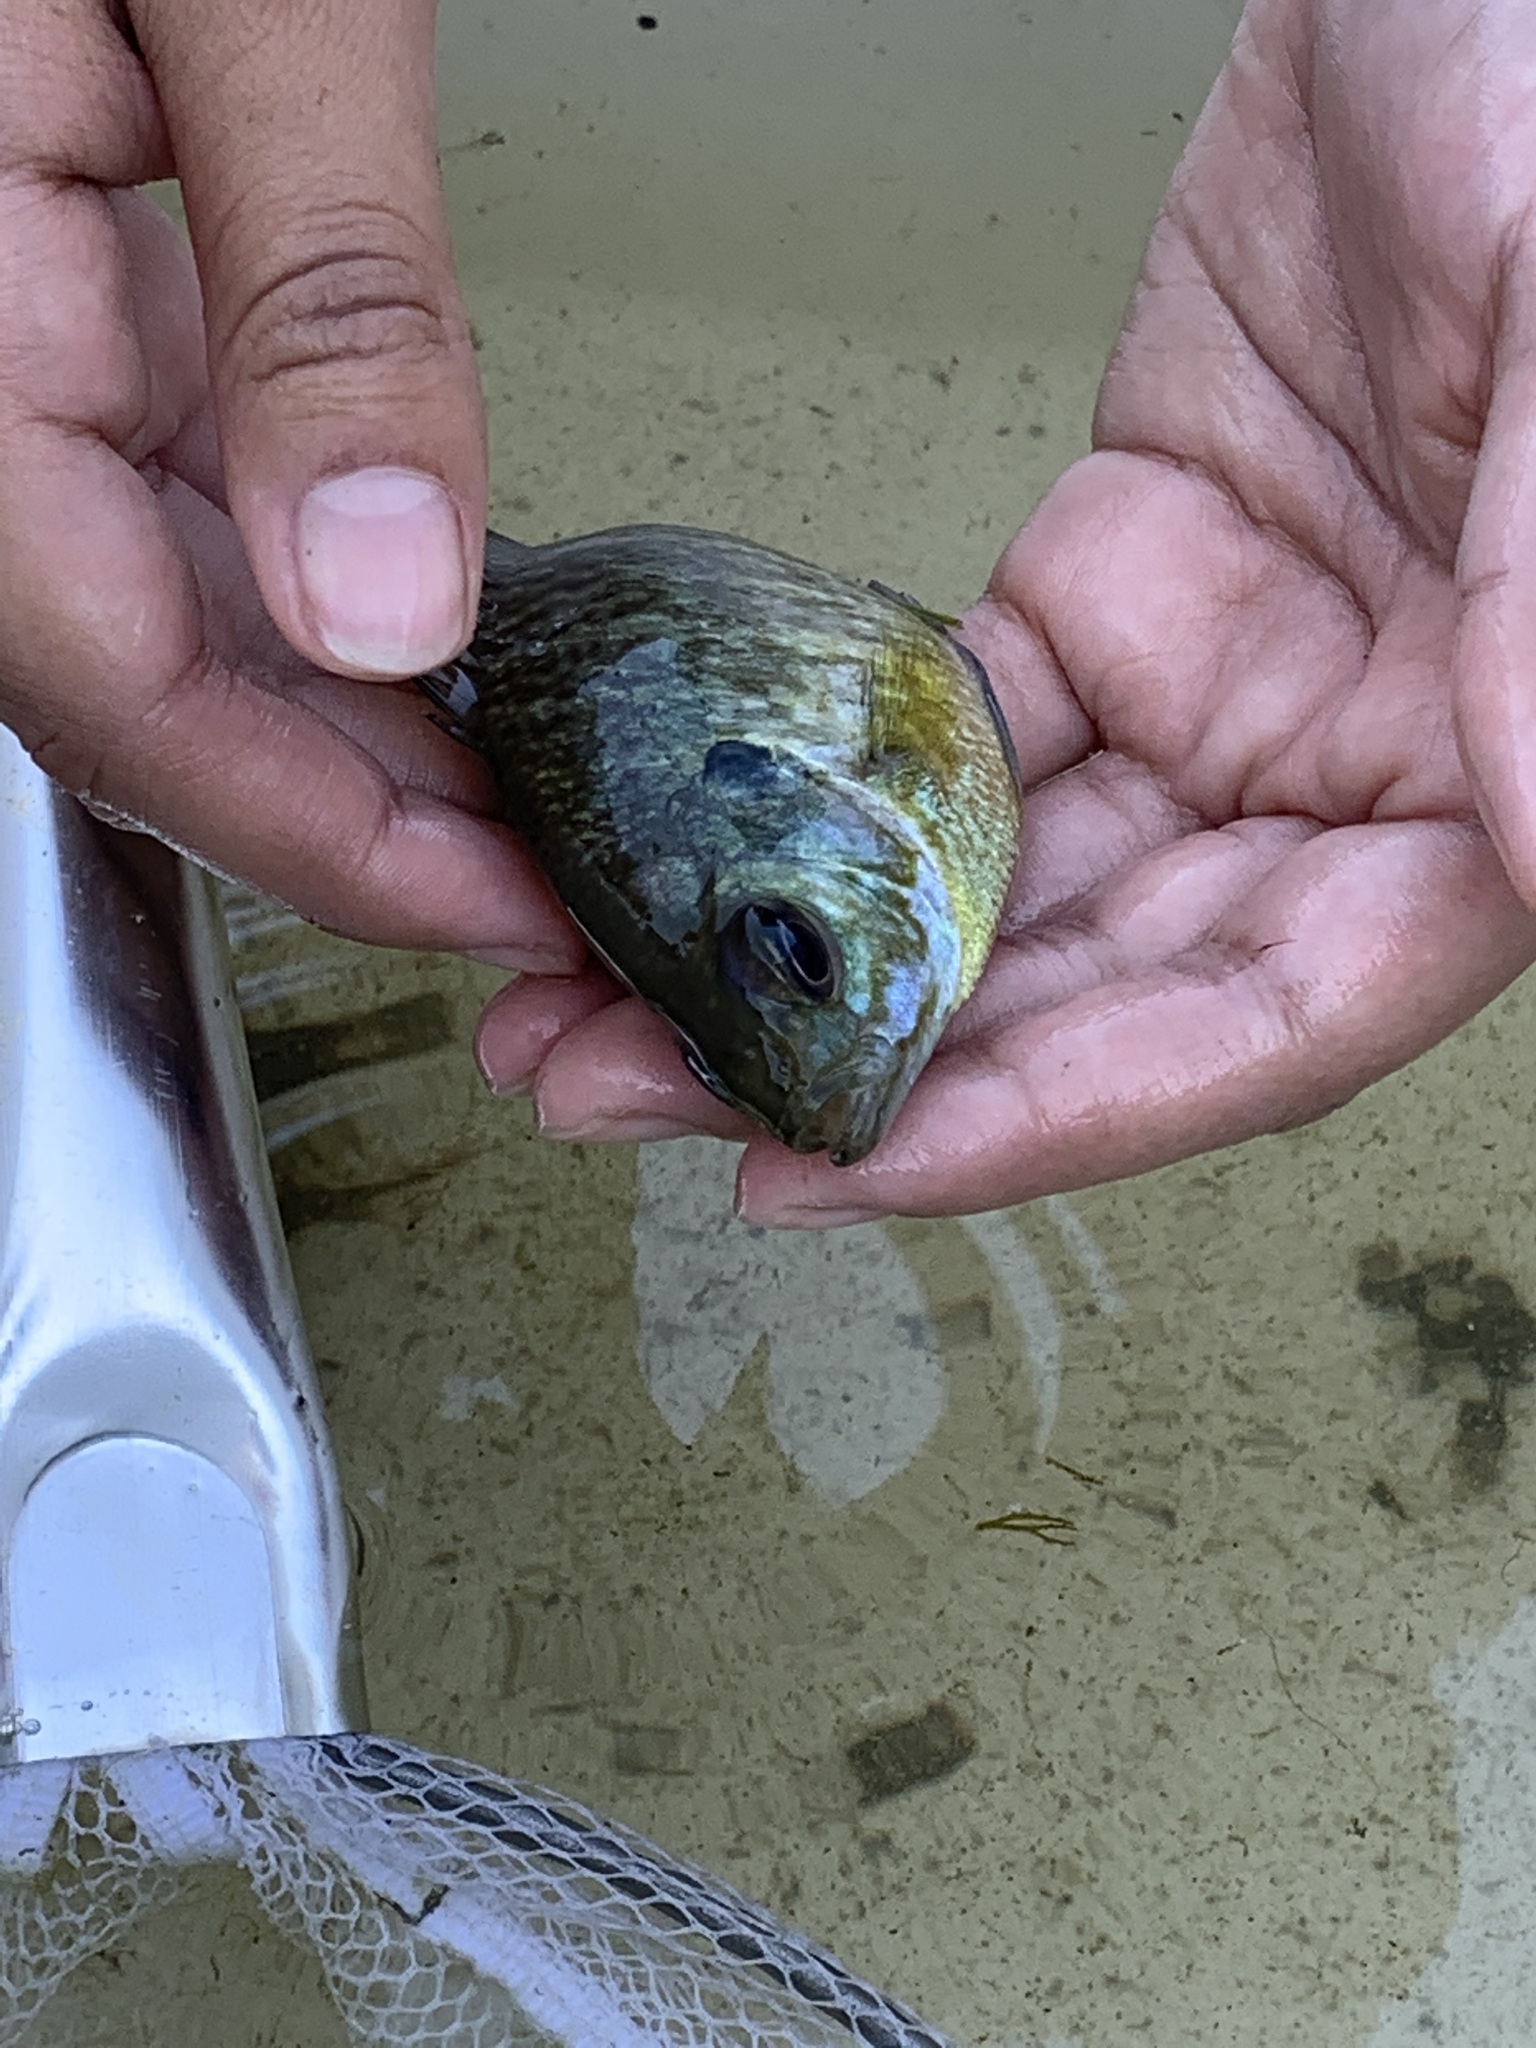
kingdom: Animalia
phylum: Chordata
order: Perciformes
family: Centrarchidae
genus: Lepomis
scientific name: Lepomis macrochirus
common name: Bluegill
